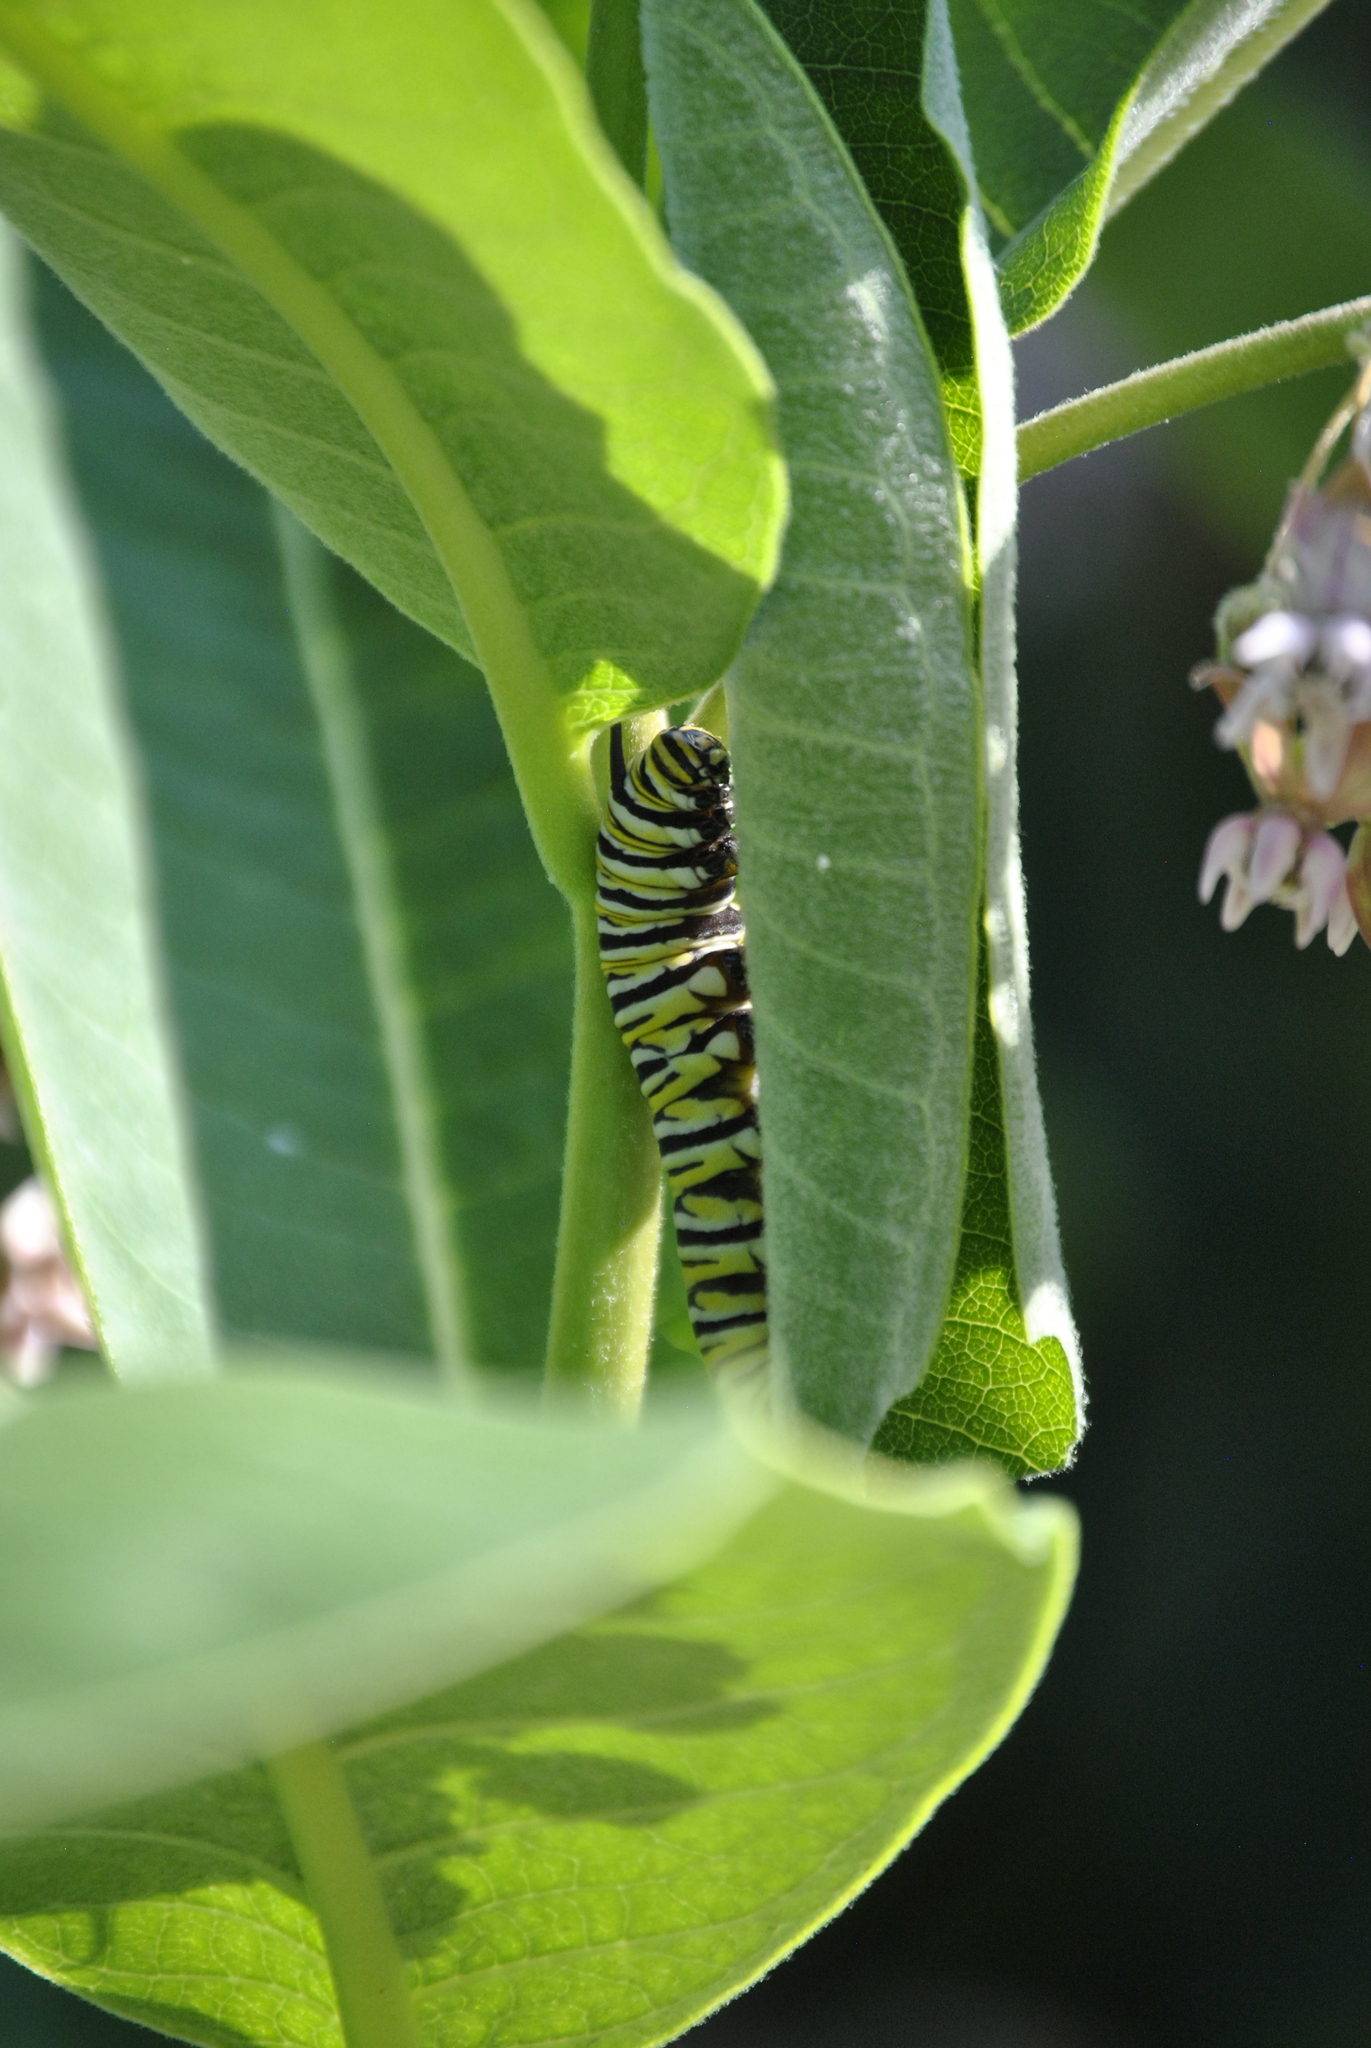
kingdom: Animalia
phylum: Arthropoda
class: Insecta
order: Lepidoptera
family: Nymphalidae
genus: Danaus
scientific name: Danaus plexippus
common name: Monarch
